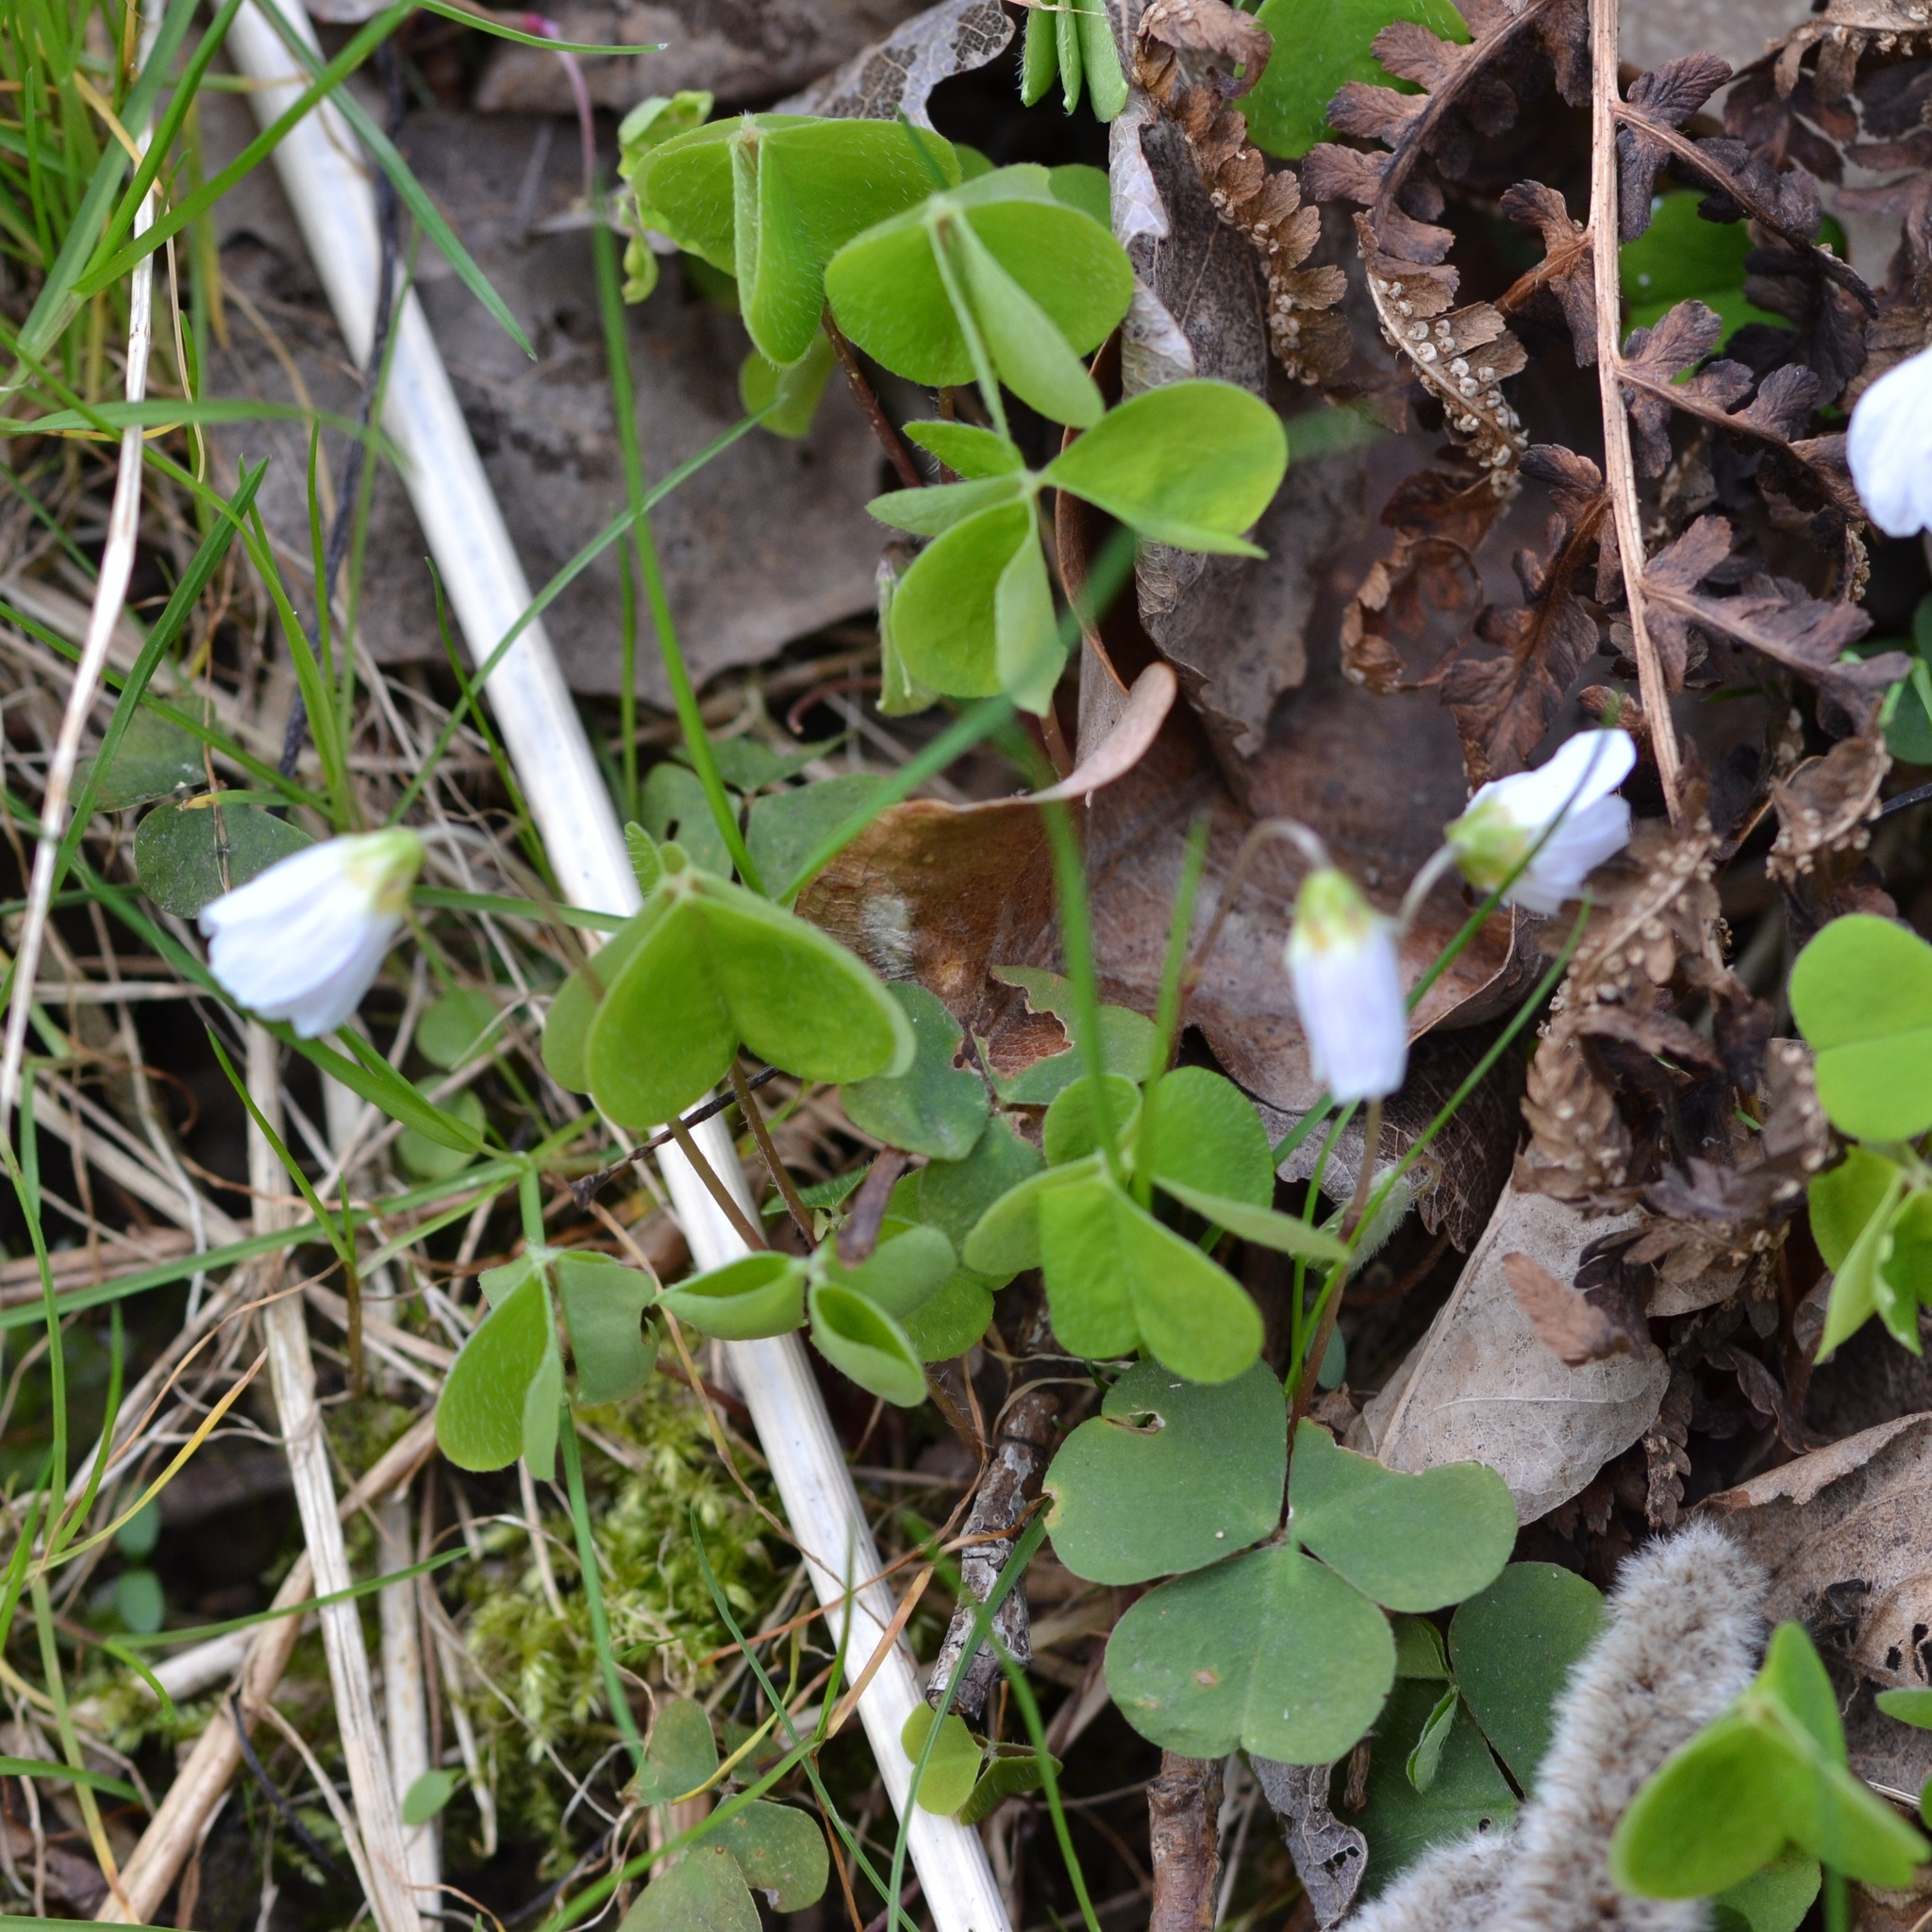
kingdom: Plantae
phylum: Tracheophyta
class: Magnoliopsida
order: Oxalidales
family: Oxalidaceae
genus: Oxalis
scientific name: Oxalis acetosella
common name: Wood-sorrel
